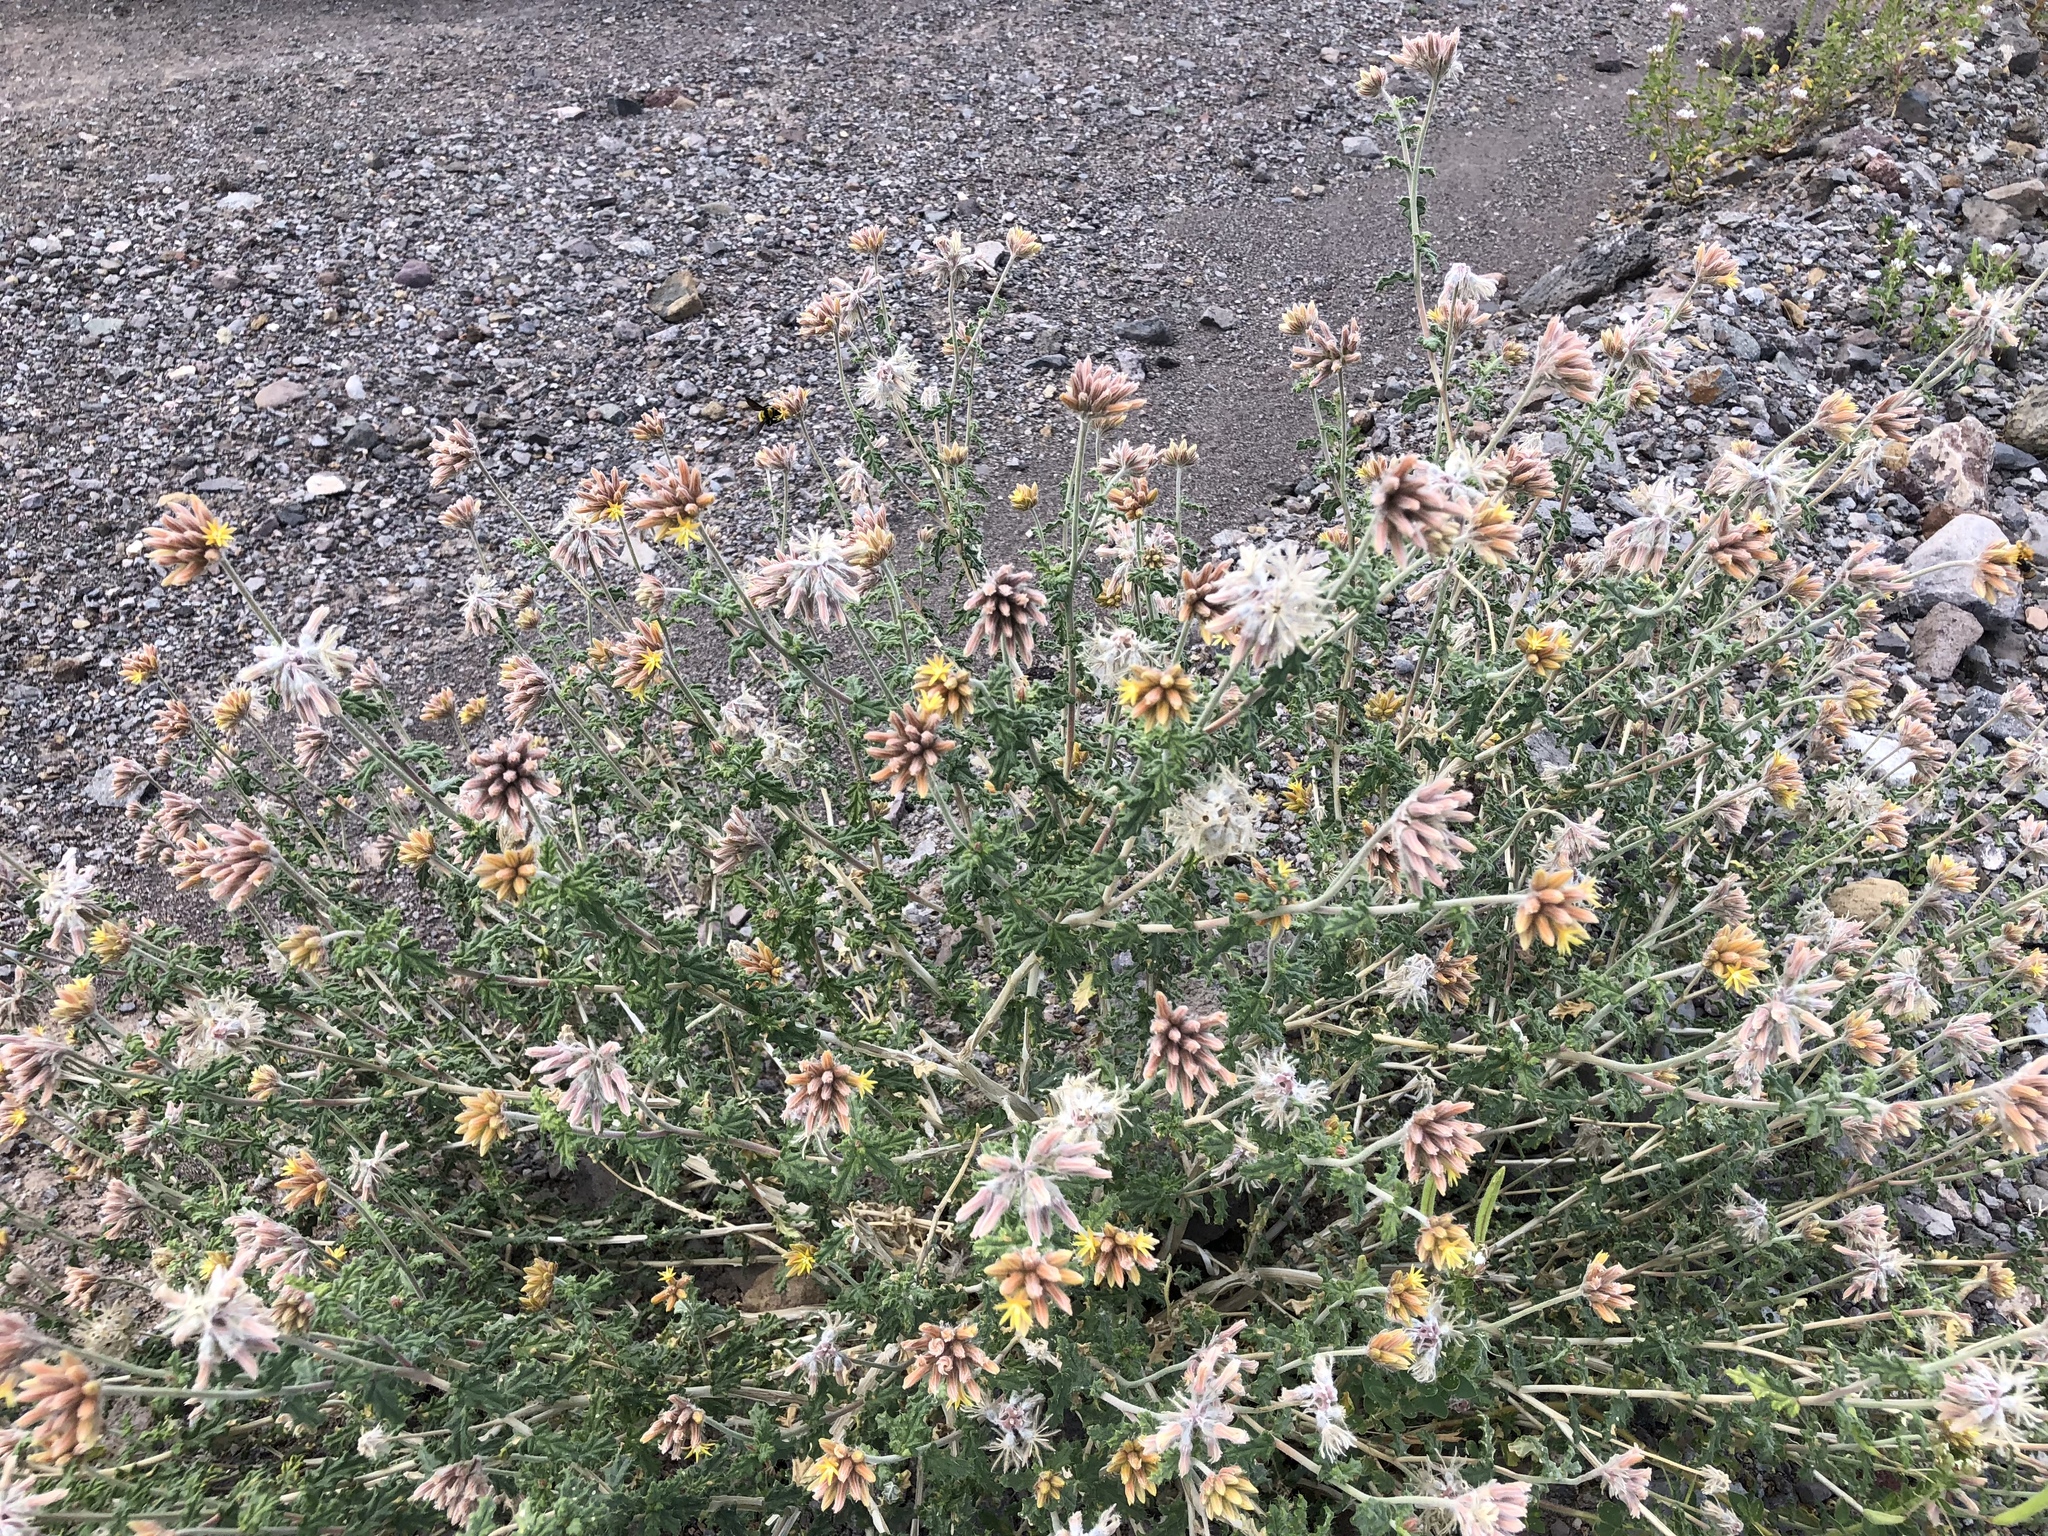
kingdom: Plantae
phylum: Tracheophyta
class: Magnoliopsida
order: Cornales
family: Loasaceae
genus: Cevallia
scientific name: Cevallia sinuata
